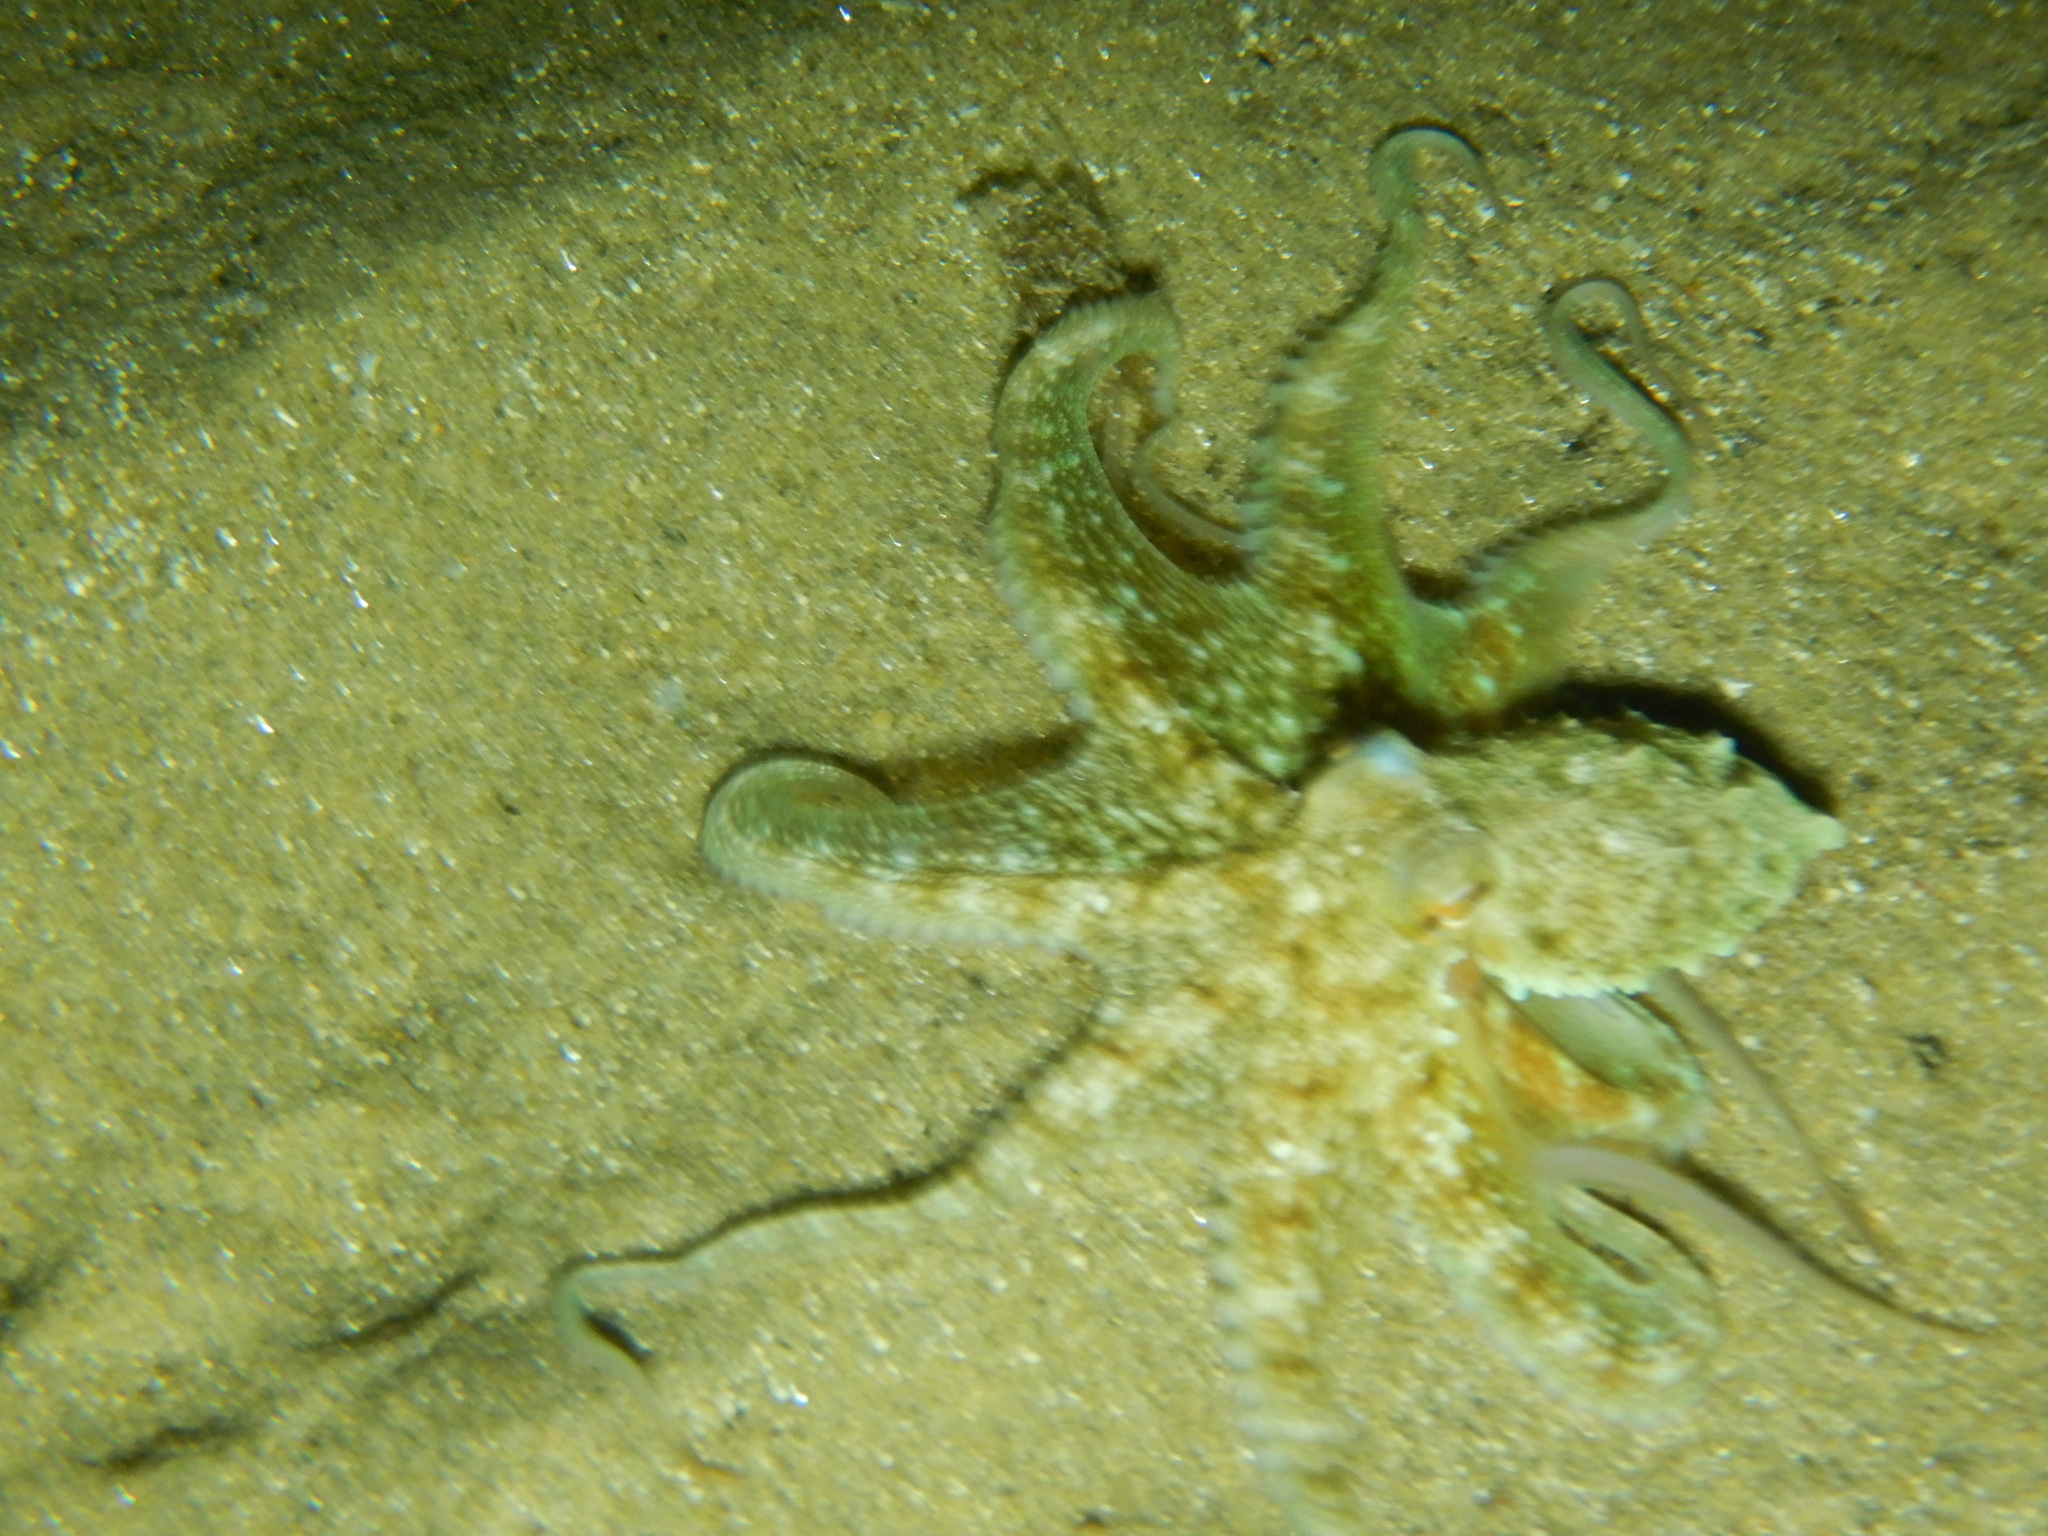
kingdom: Animalia
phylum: Mollusca
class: Cephalopoda
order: Octopoda
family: Octopodidae
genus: Octopus
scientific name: Octopus vulgaris
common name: Common octopus
